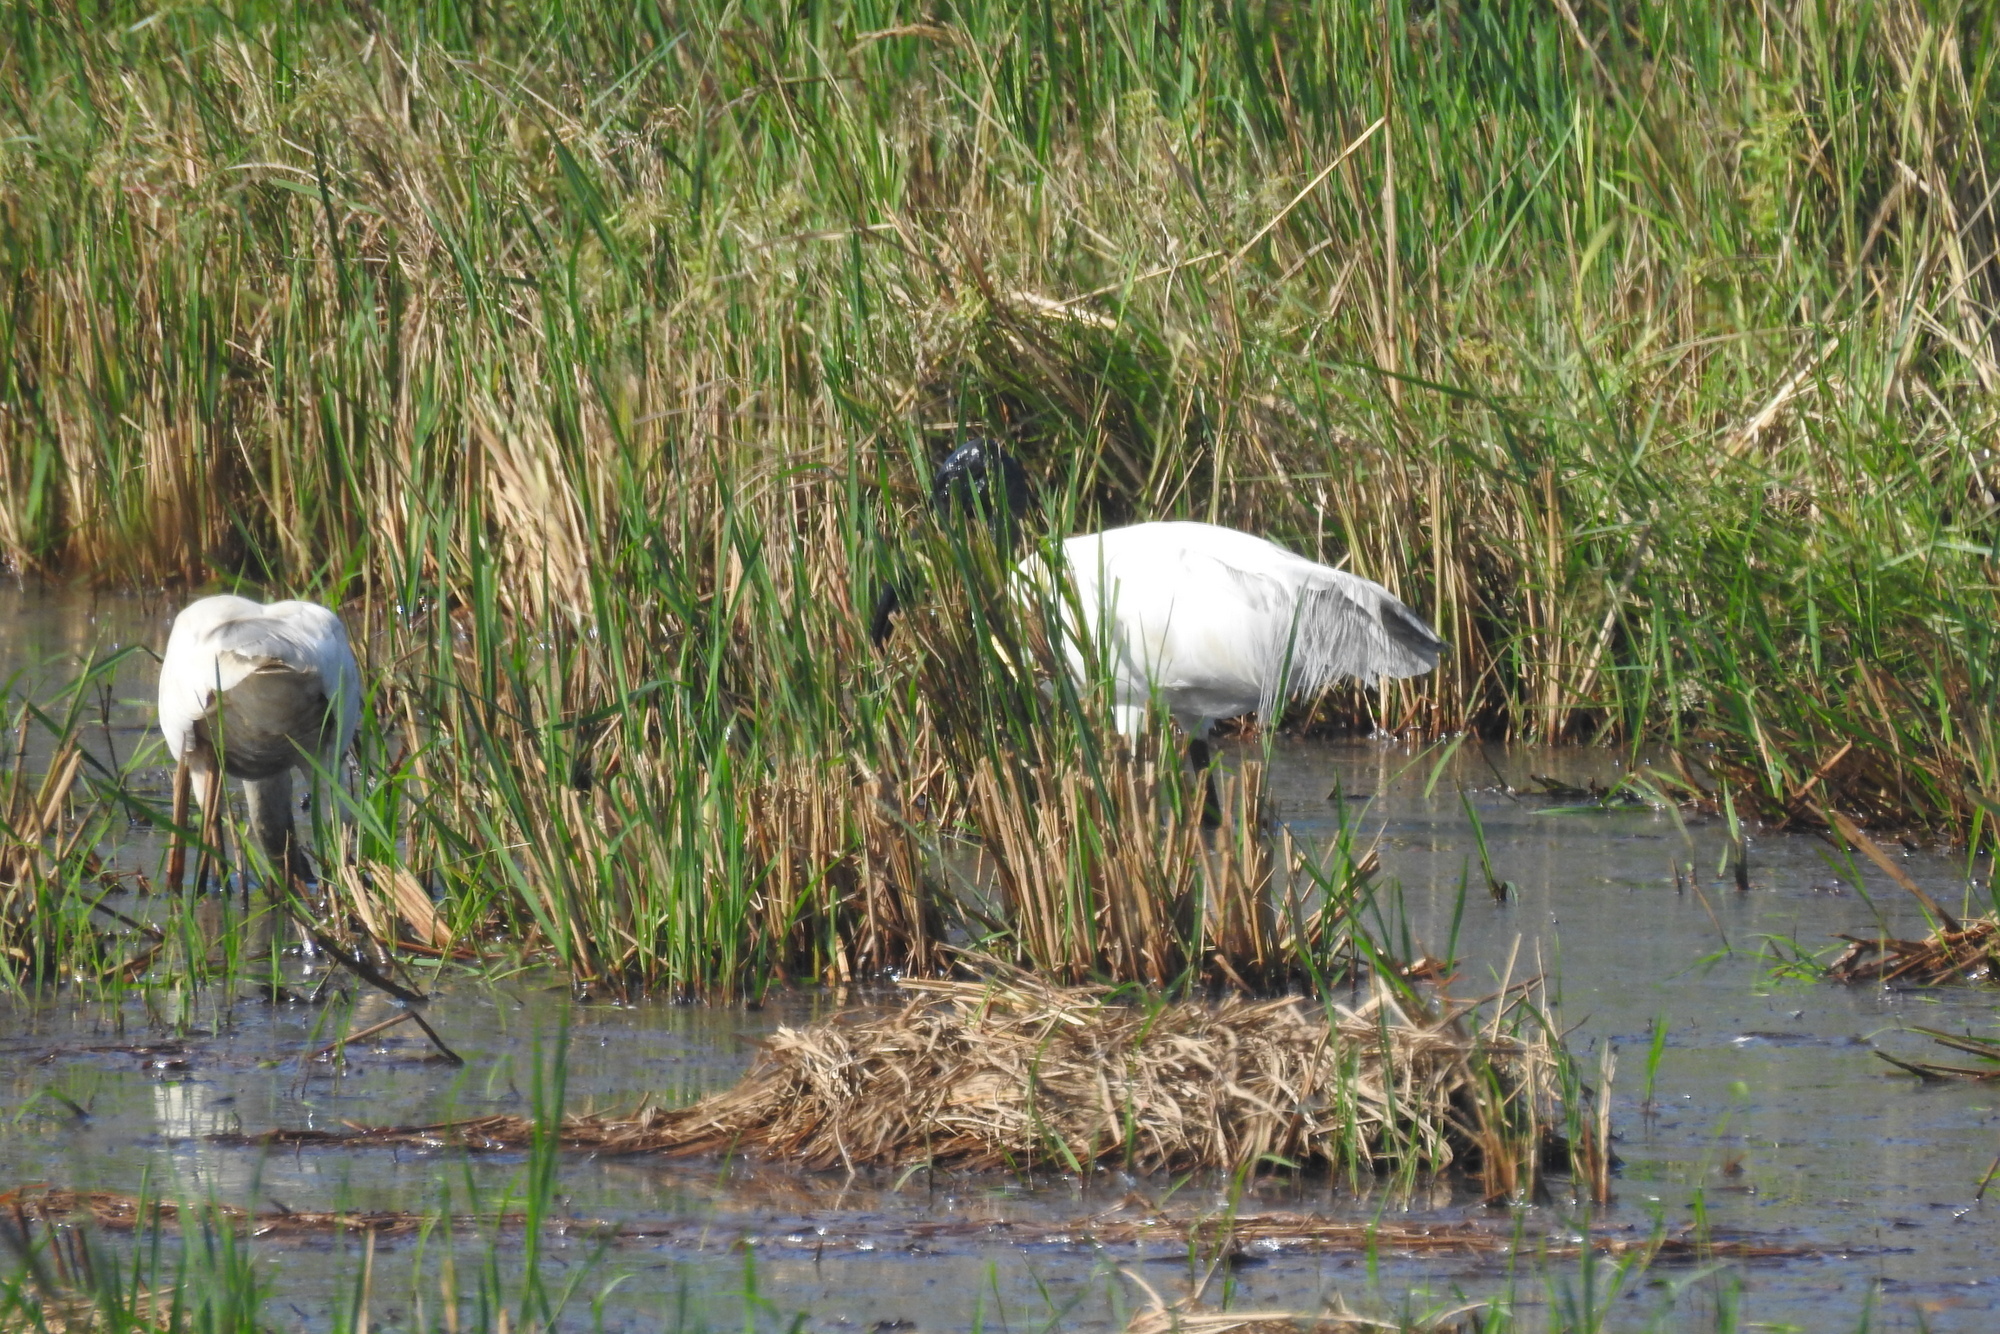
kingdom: Animalia
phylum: Chordata
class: Aves
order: Pelecaniformes
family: Threskiornithidae
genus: Threskiornis
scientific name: Threskiornis melanocephalus
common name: Black-headed ibis
